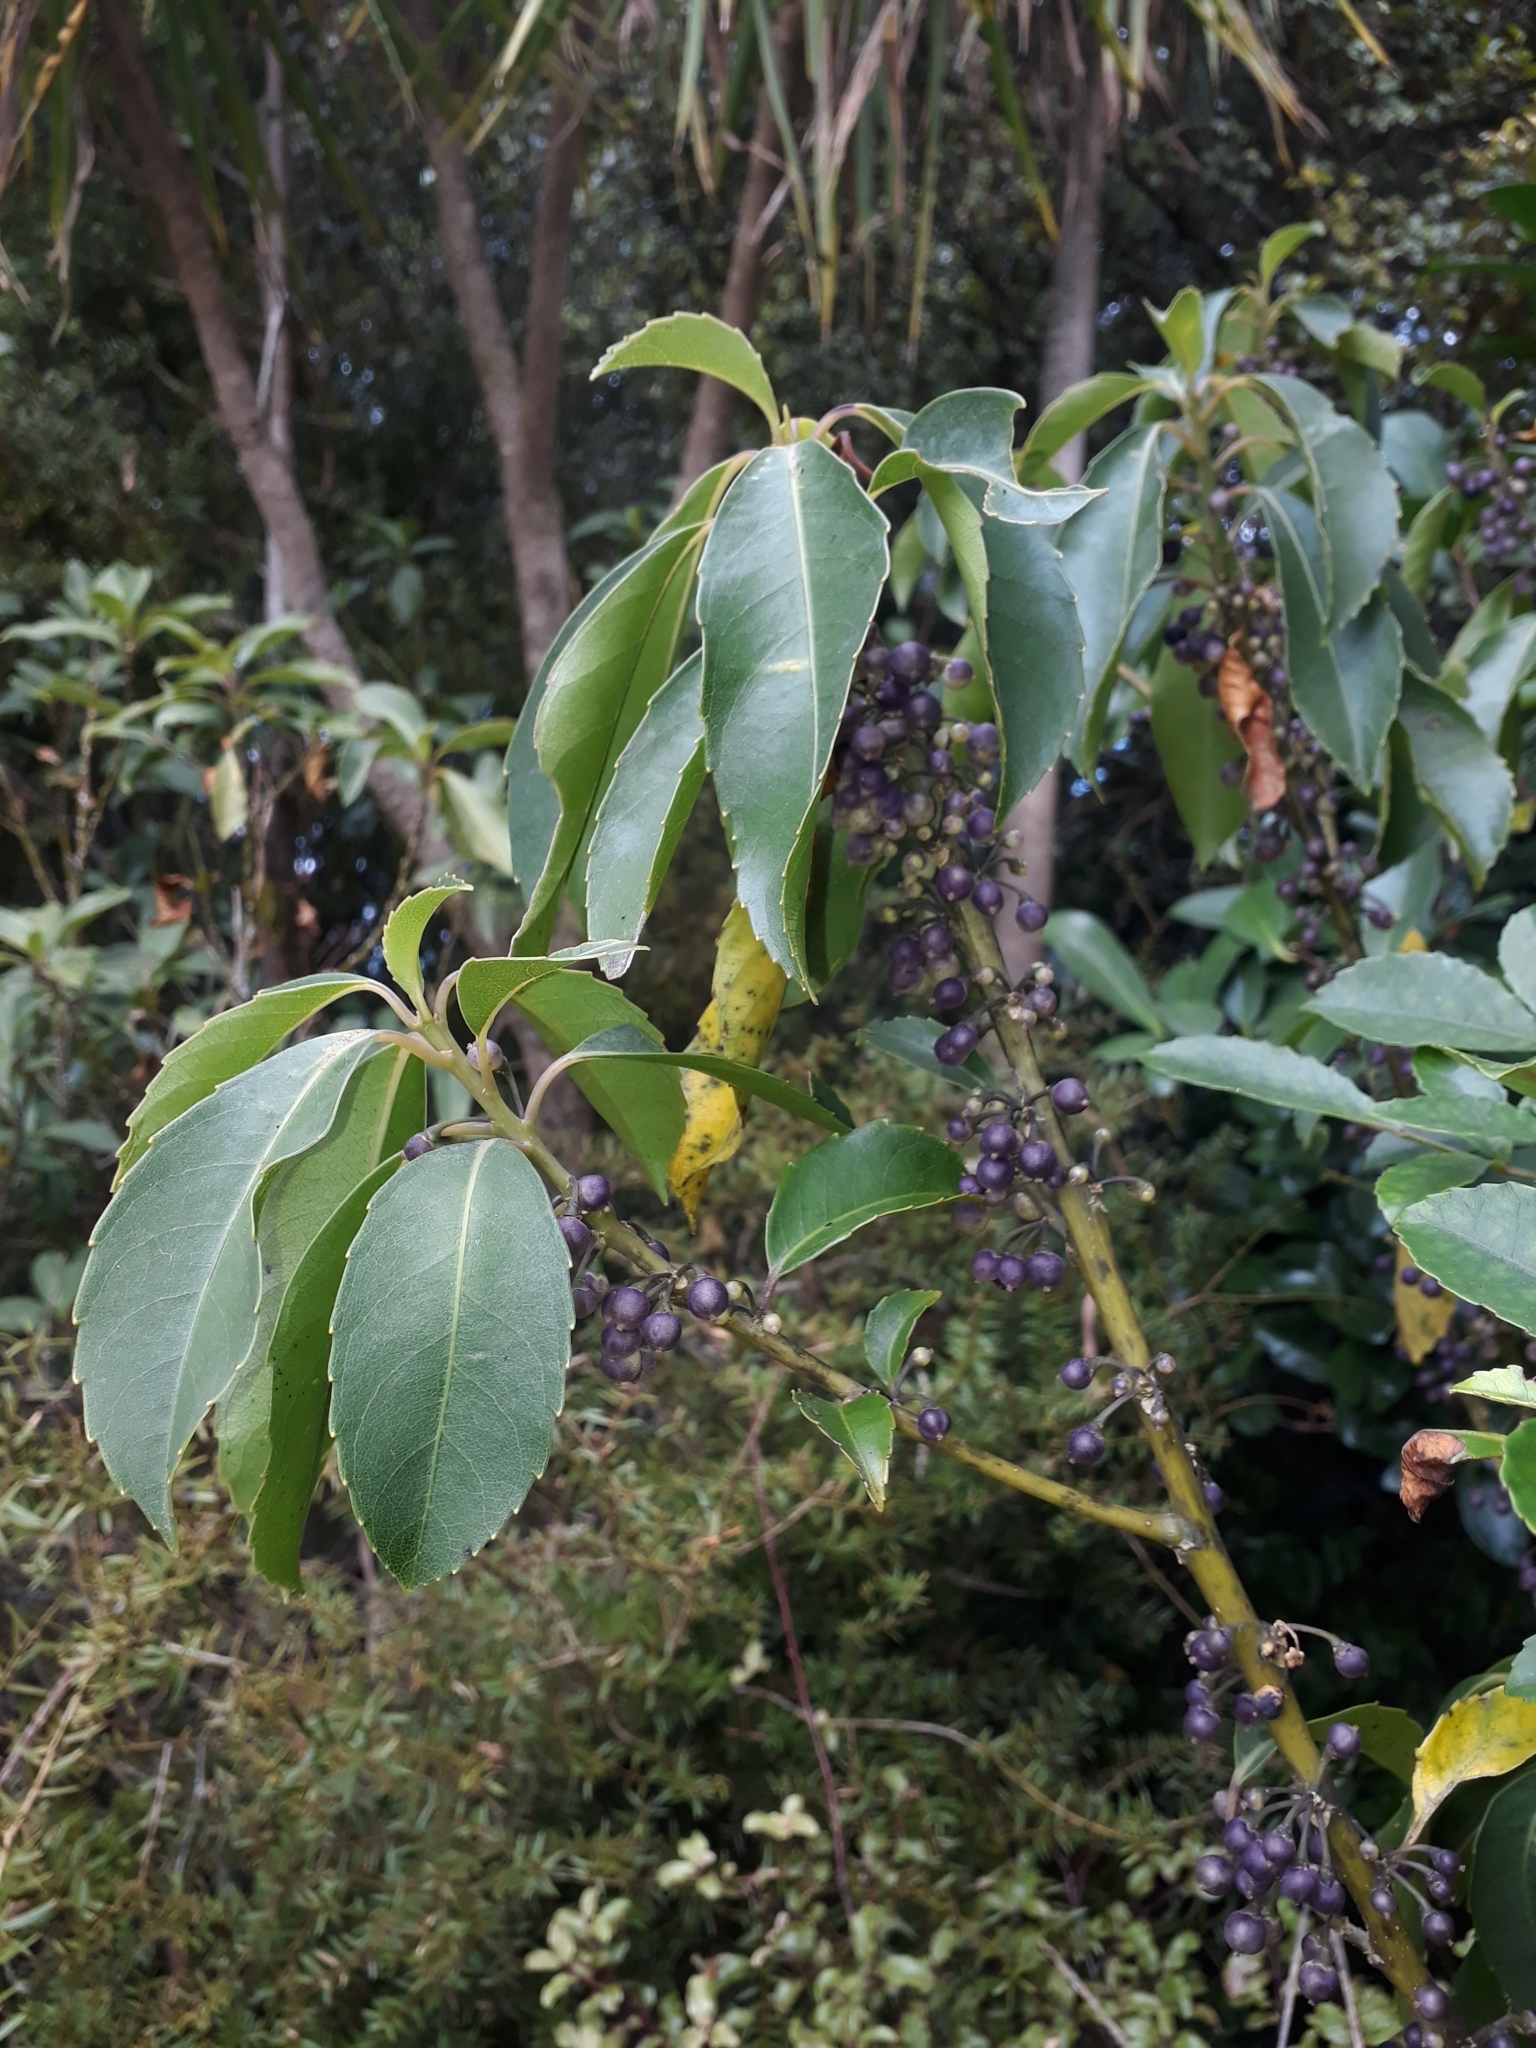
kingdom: Plantae
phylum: Tracheophyta
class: Magnoliopsida
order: Malpighiales
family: Violaceae
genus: Melicytus
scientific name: Melicytus macrophyllus
